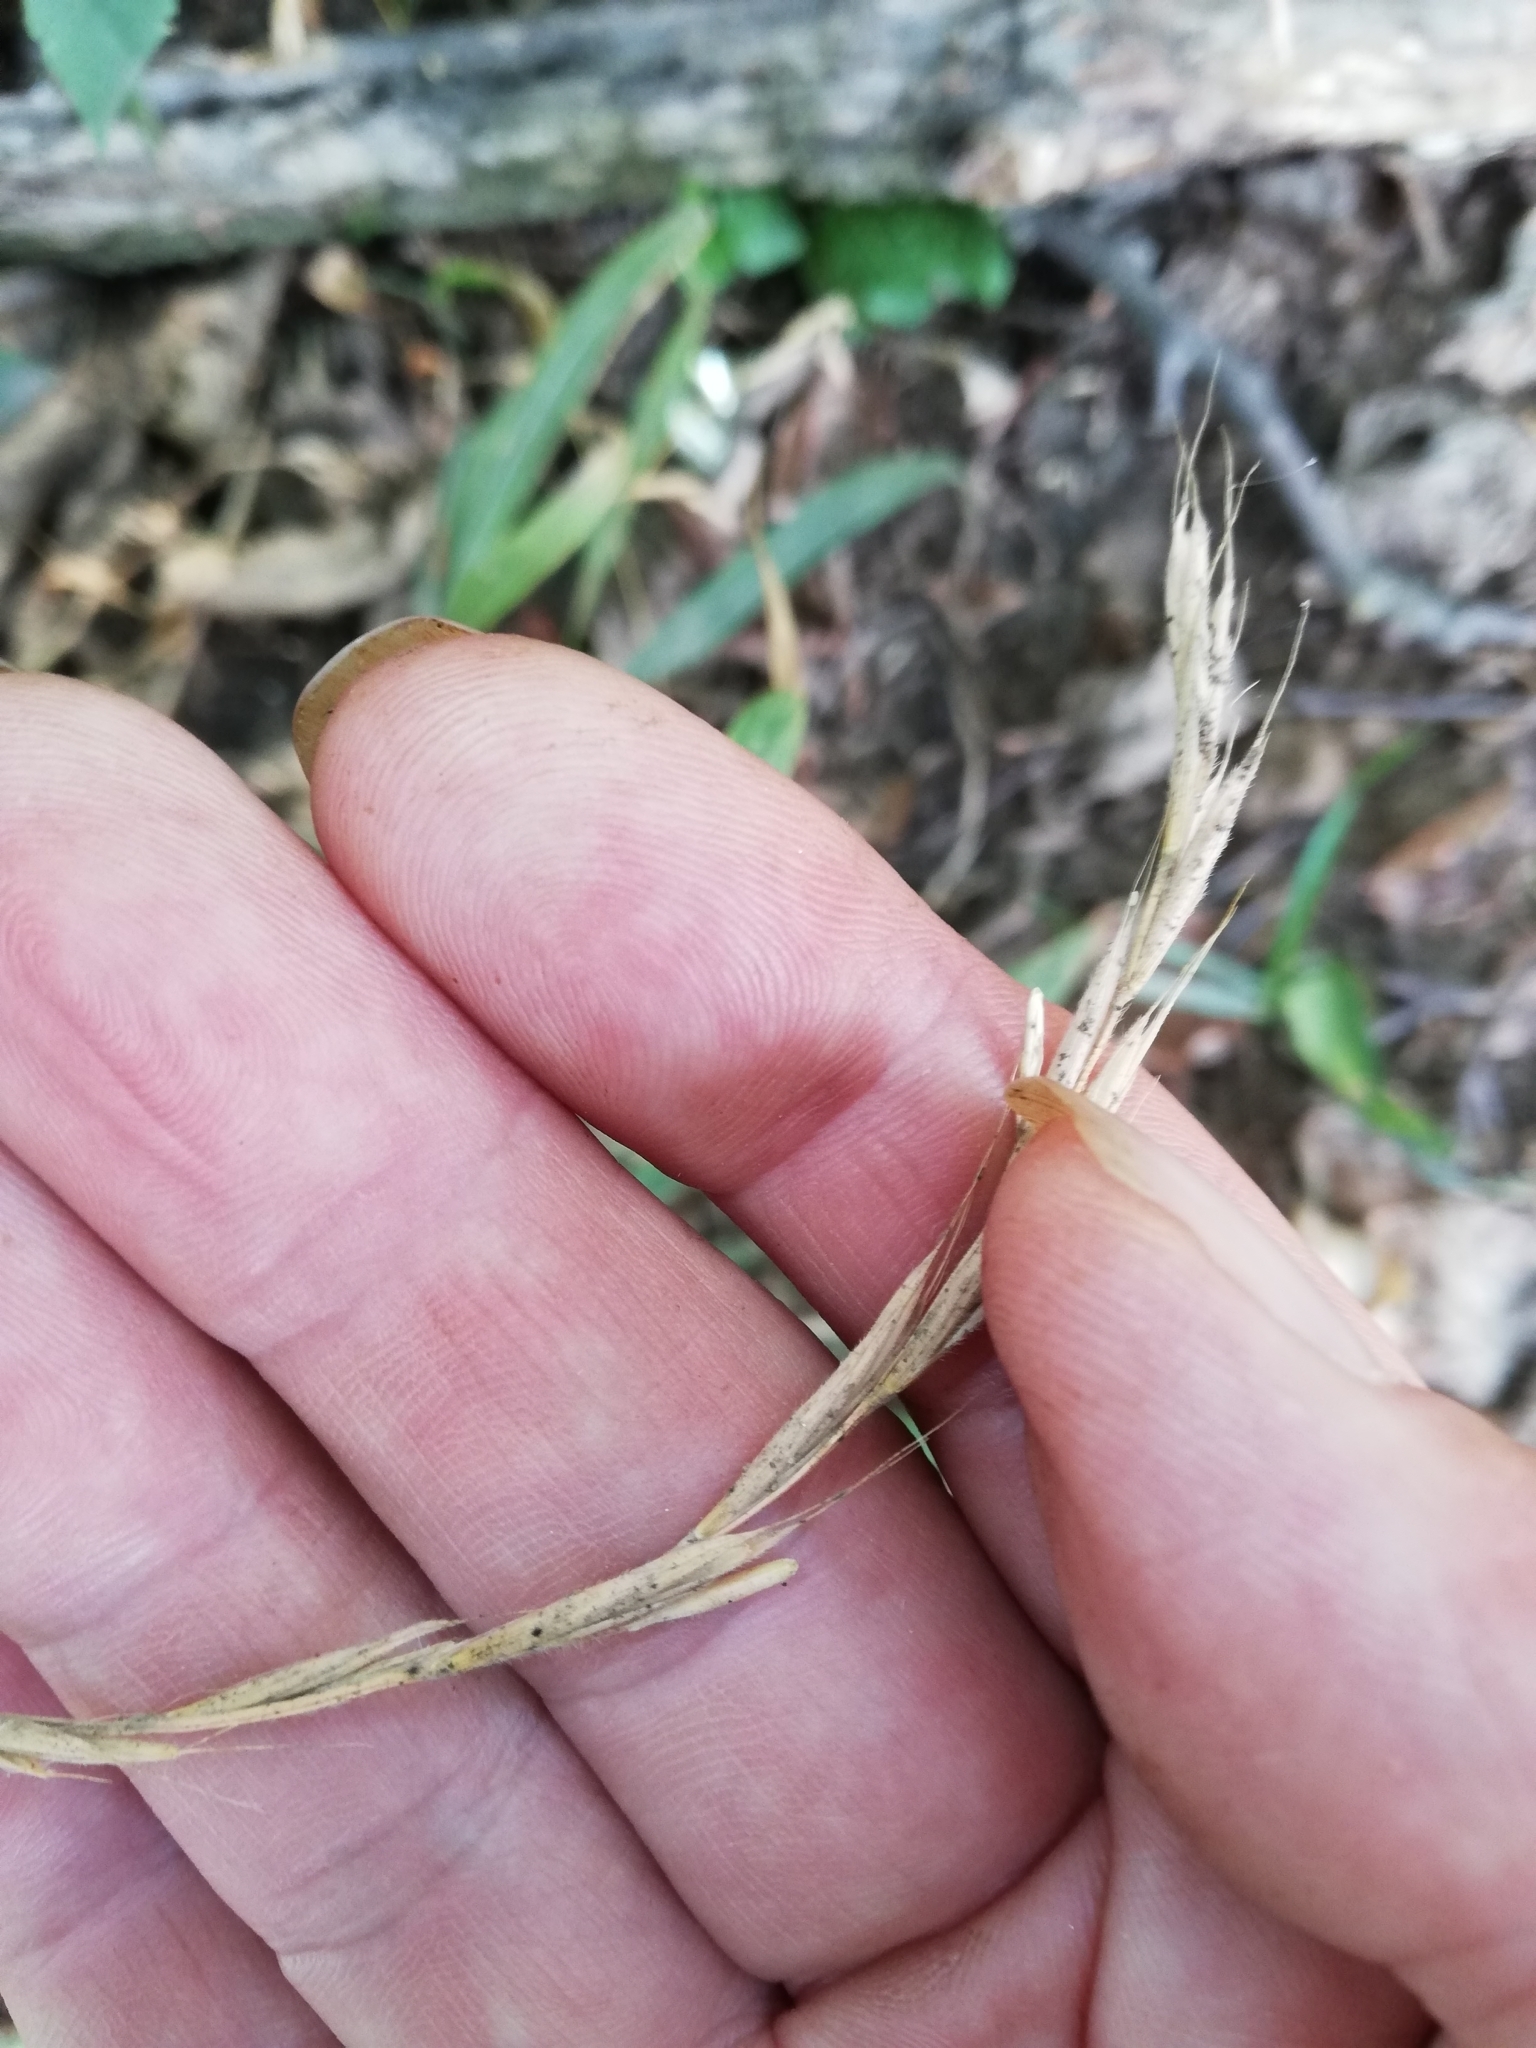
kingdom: Plantae
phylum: Tracheophyta
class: Liliopsida
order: Poales
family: Poaceae
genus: Brachypodium
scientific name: Brachypodium sylvaticum
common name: False-brome
